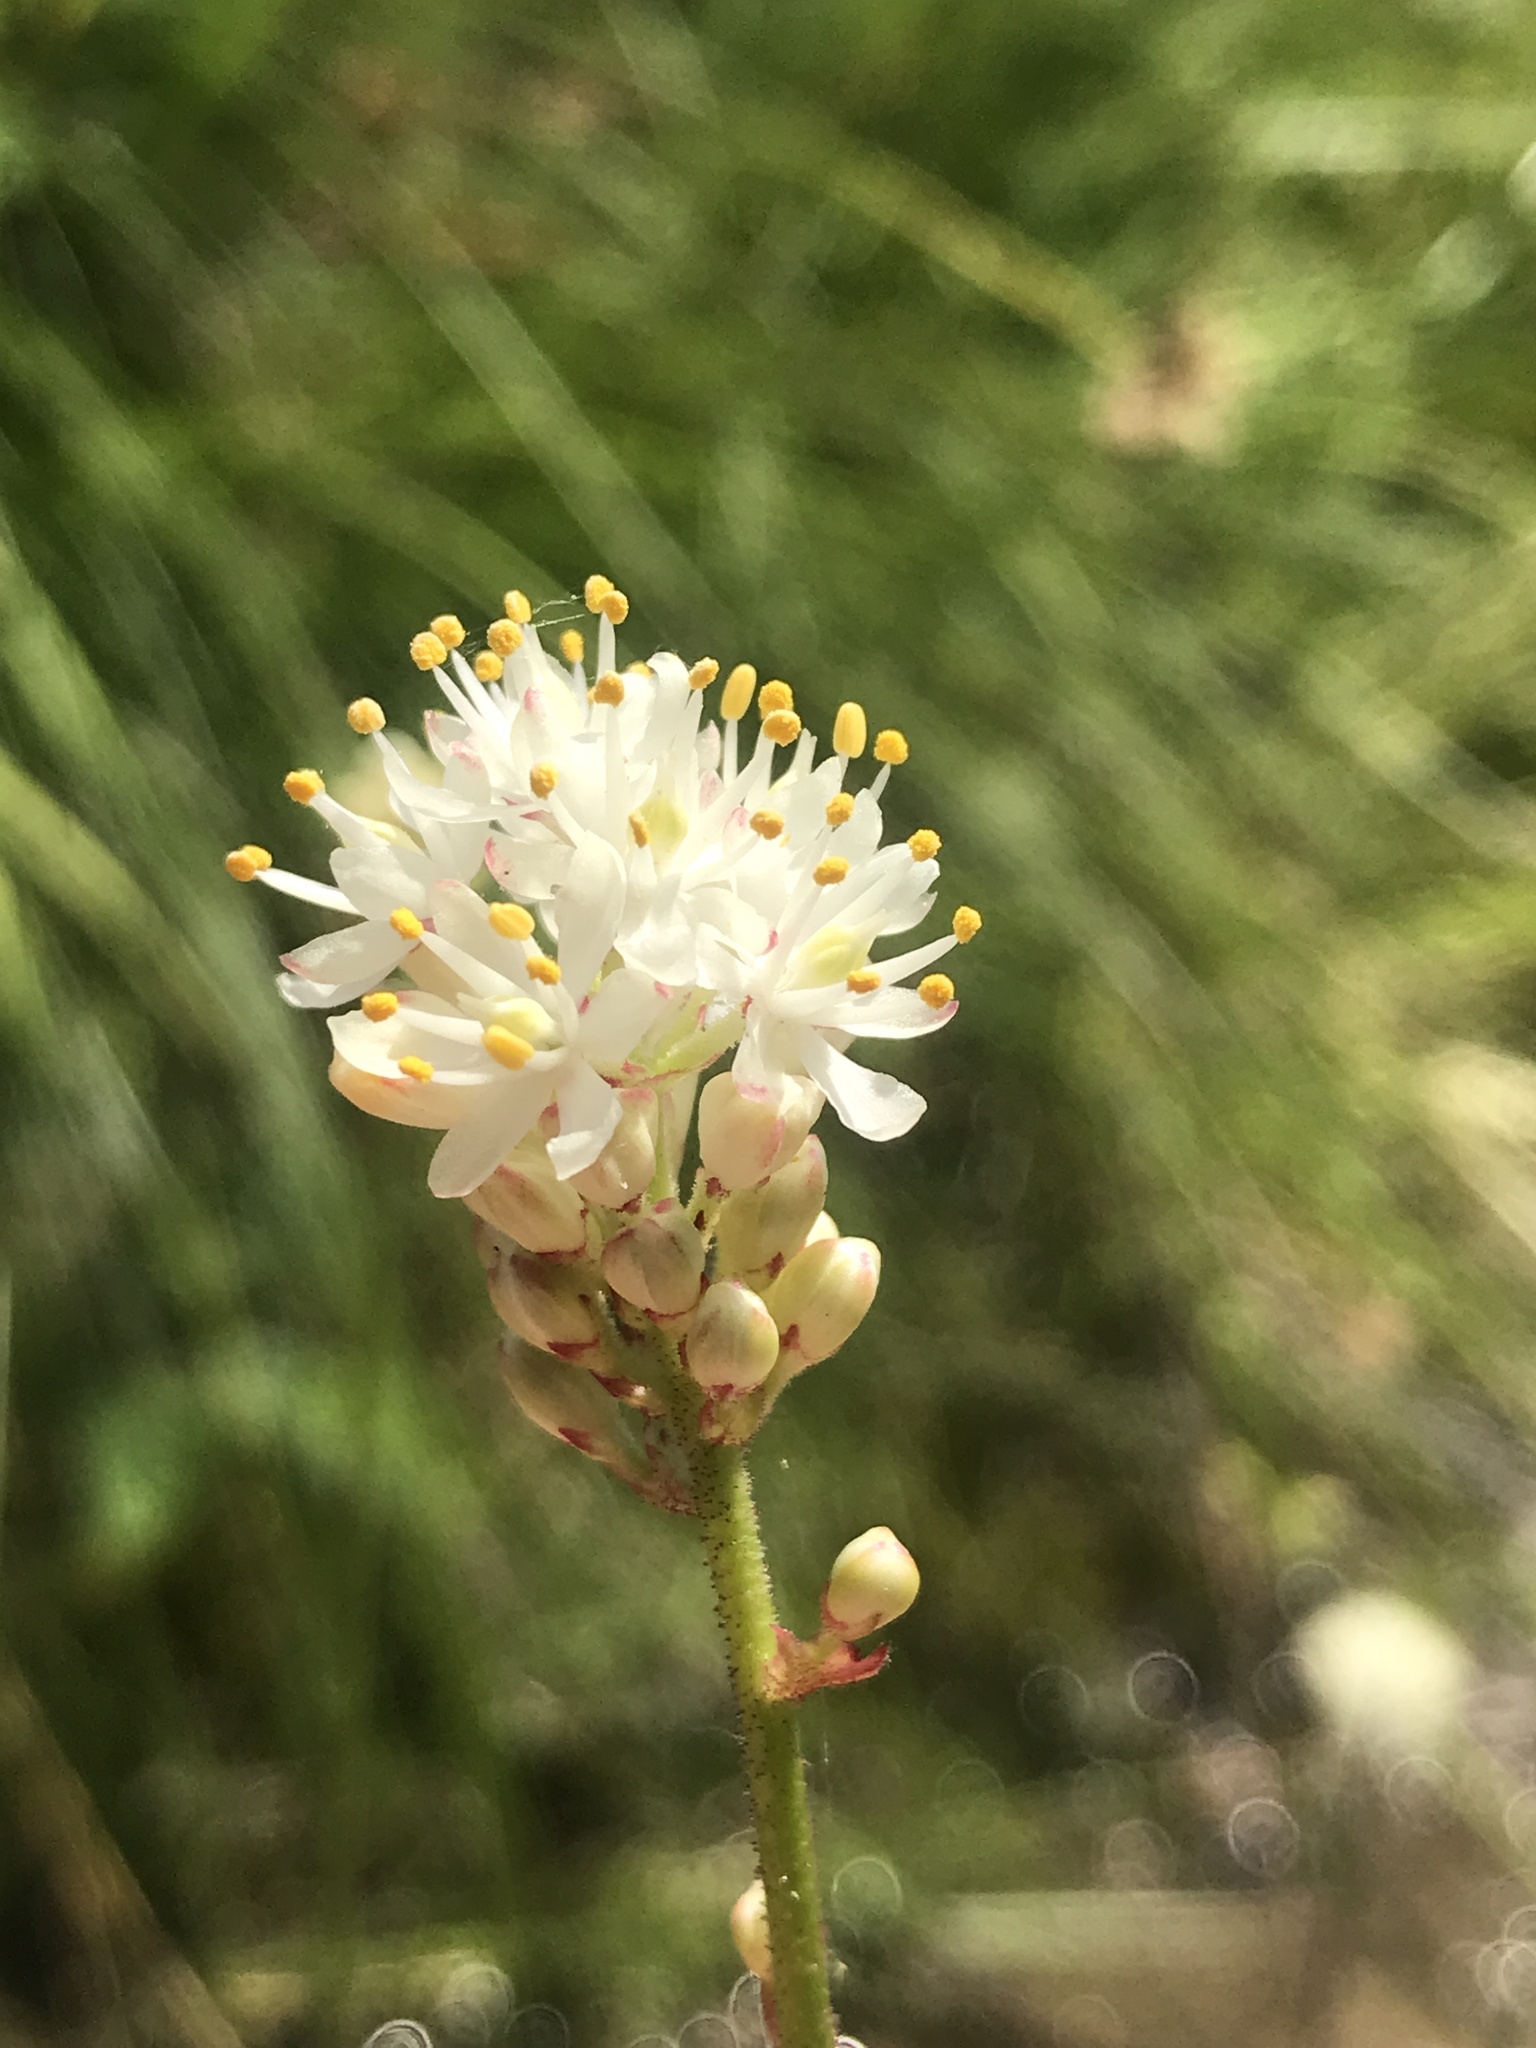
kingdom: Plantae
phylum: Tracheophyta
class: Liliopsida
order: Alismatales
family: Tofieldiaceae
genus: Triantha
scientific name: Triantha occidentalis
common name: Western false asphodel
